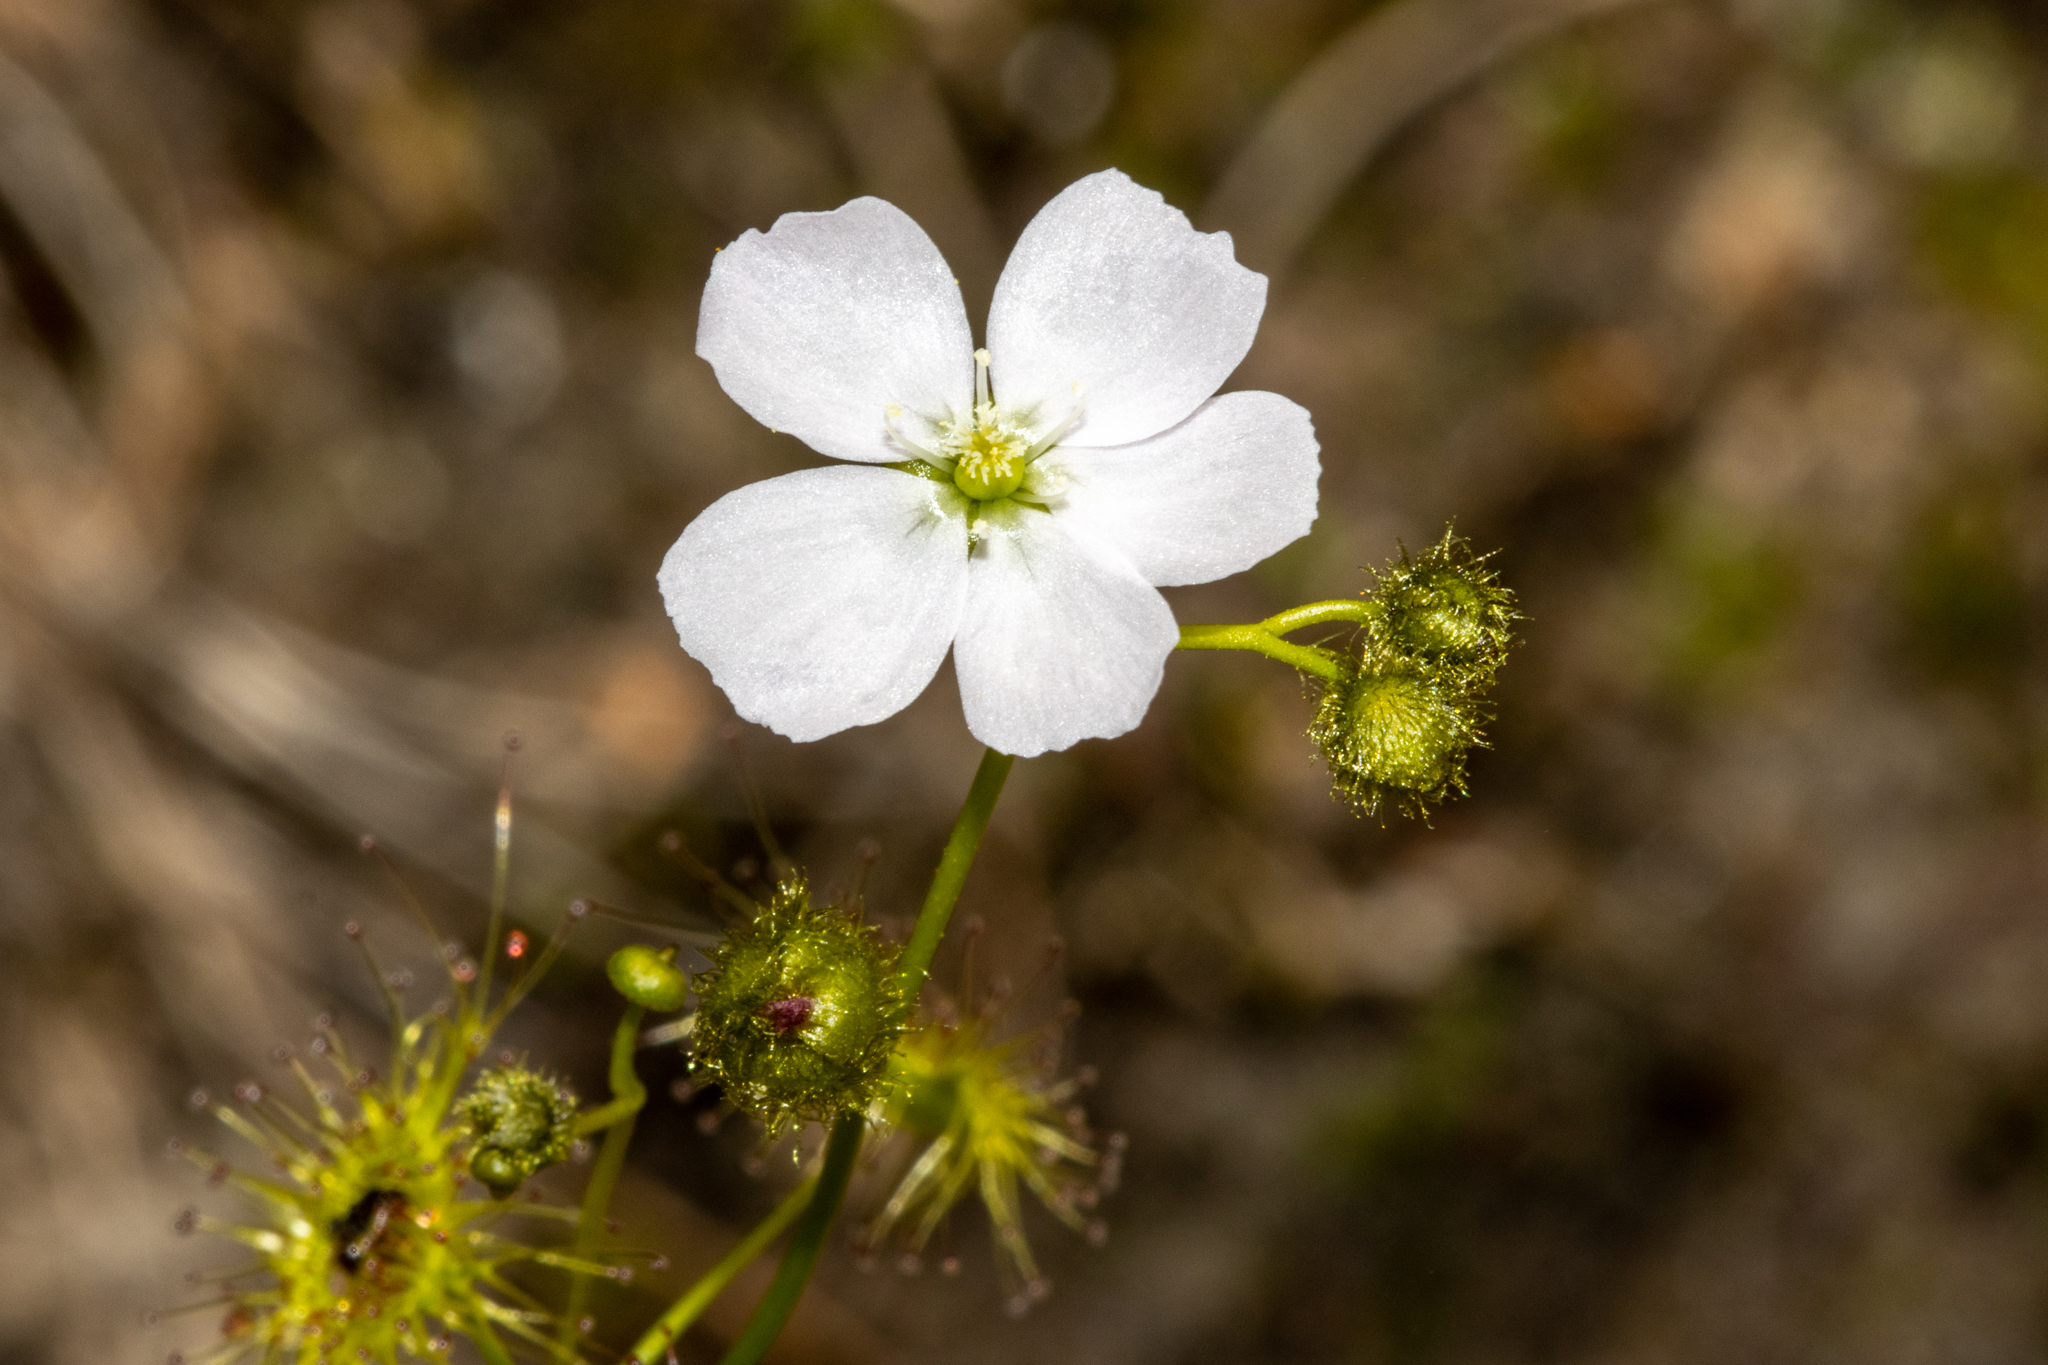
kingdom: Plantae
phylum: Tracheophyta
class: Magnoliopsida
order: Caryophyllales
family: Droseraceae
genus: Drosera
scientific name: Drosera gunniana
